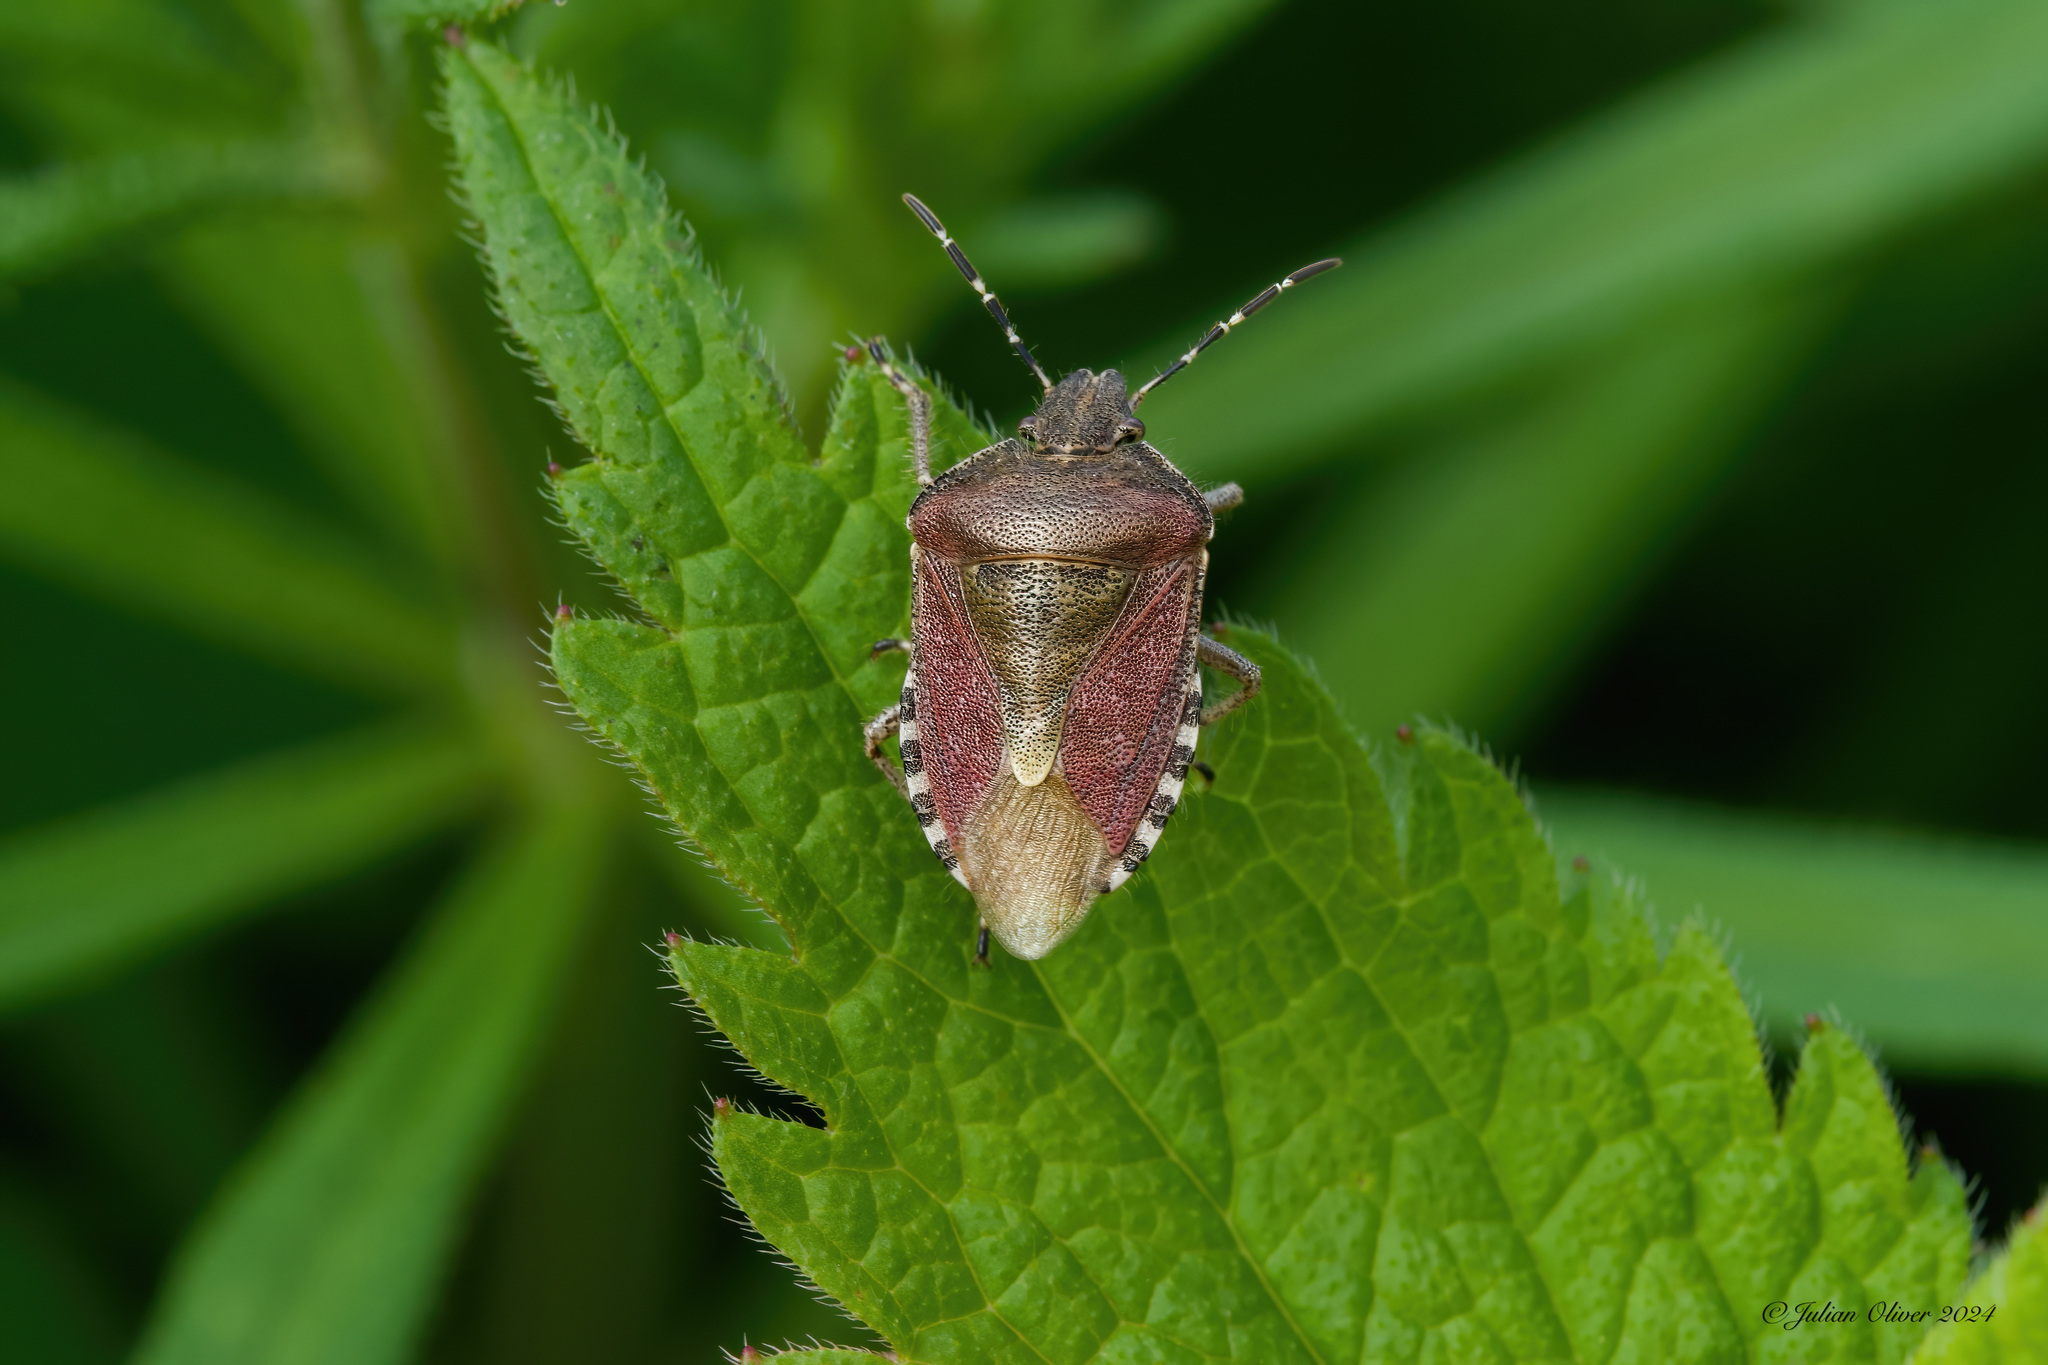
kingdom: Animalia
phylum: Arthropoda
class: Insecta
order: Hemiptera
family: Pentatomidae
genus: Dolycoris
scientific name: Dolycoris baccarum
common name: Sloe bug
